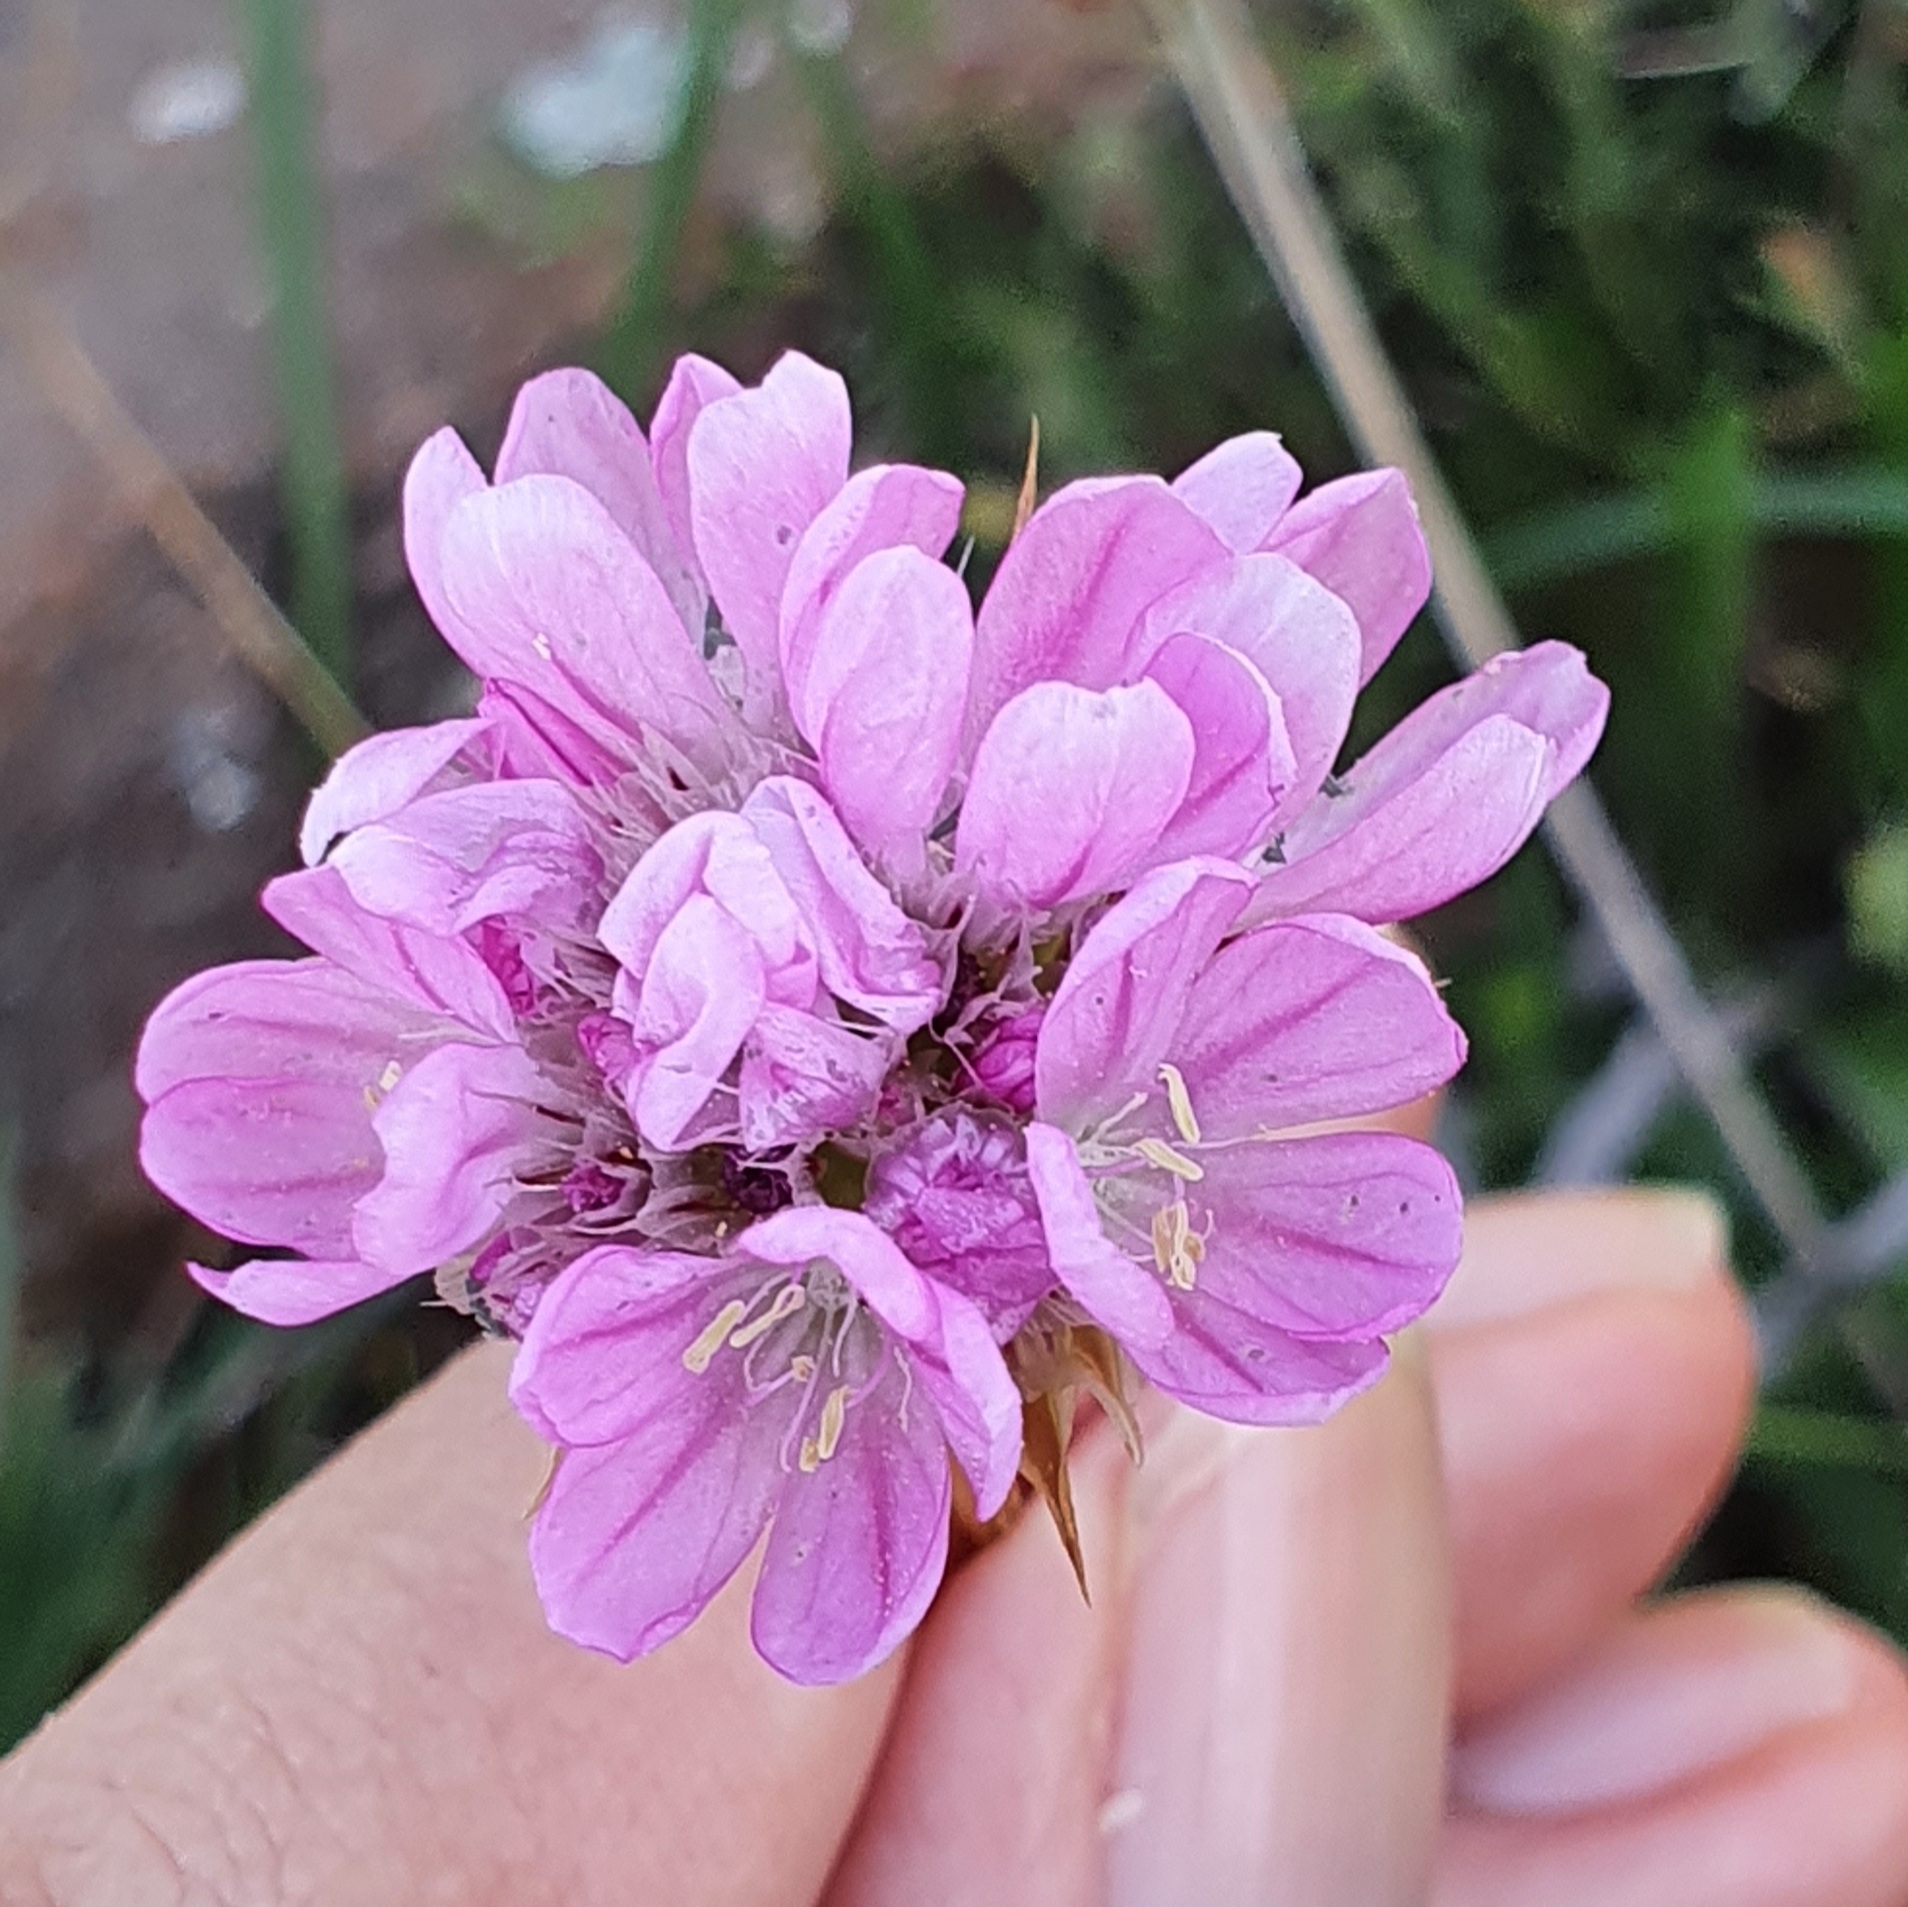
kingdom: Plantae
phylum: Tracheophyta
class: Magnoliopsida
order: Caryophyllales
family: Plumbaginaceae
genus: Armeria
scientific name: Armeria choulettiana
